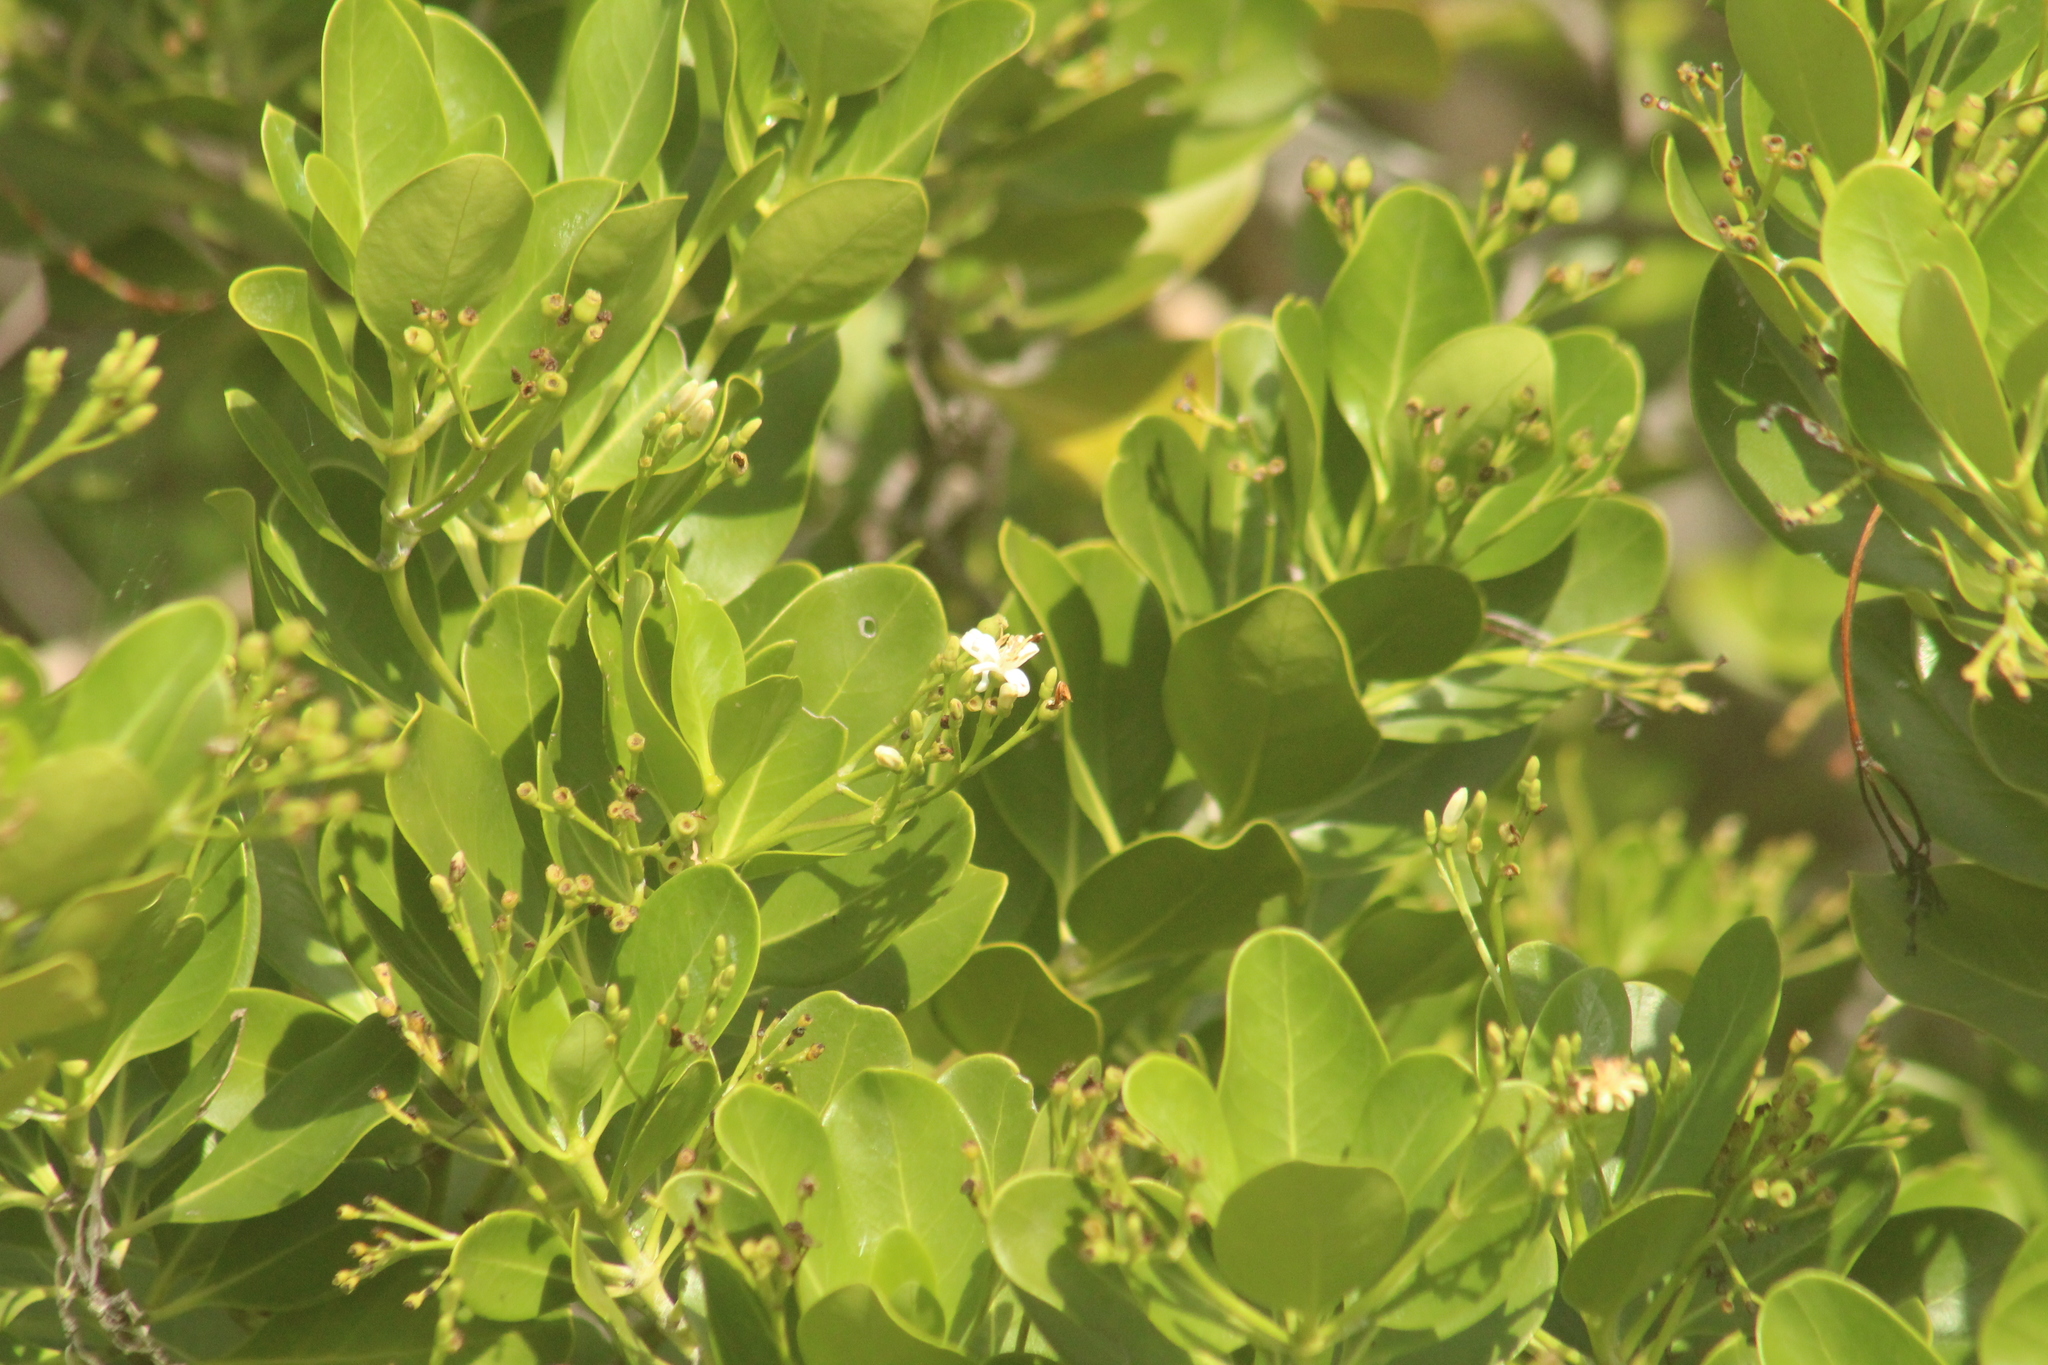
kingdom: Plantae
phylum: Tracheophyta
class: Magnoliopsida
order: Gentianales
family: Rubiaceae
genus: Erithalis
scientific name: Erithalis fruticosa
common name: Candlewood
